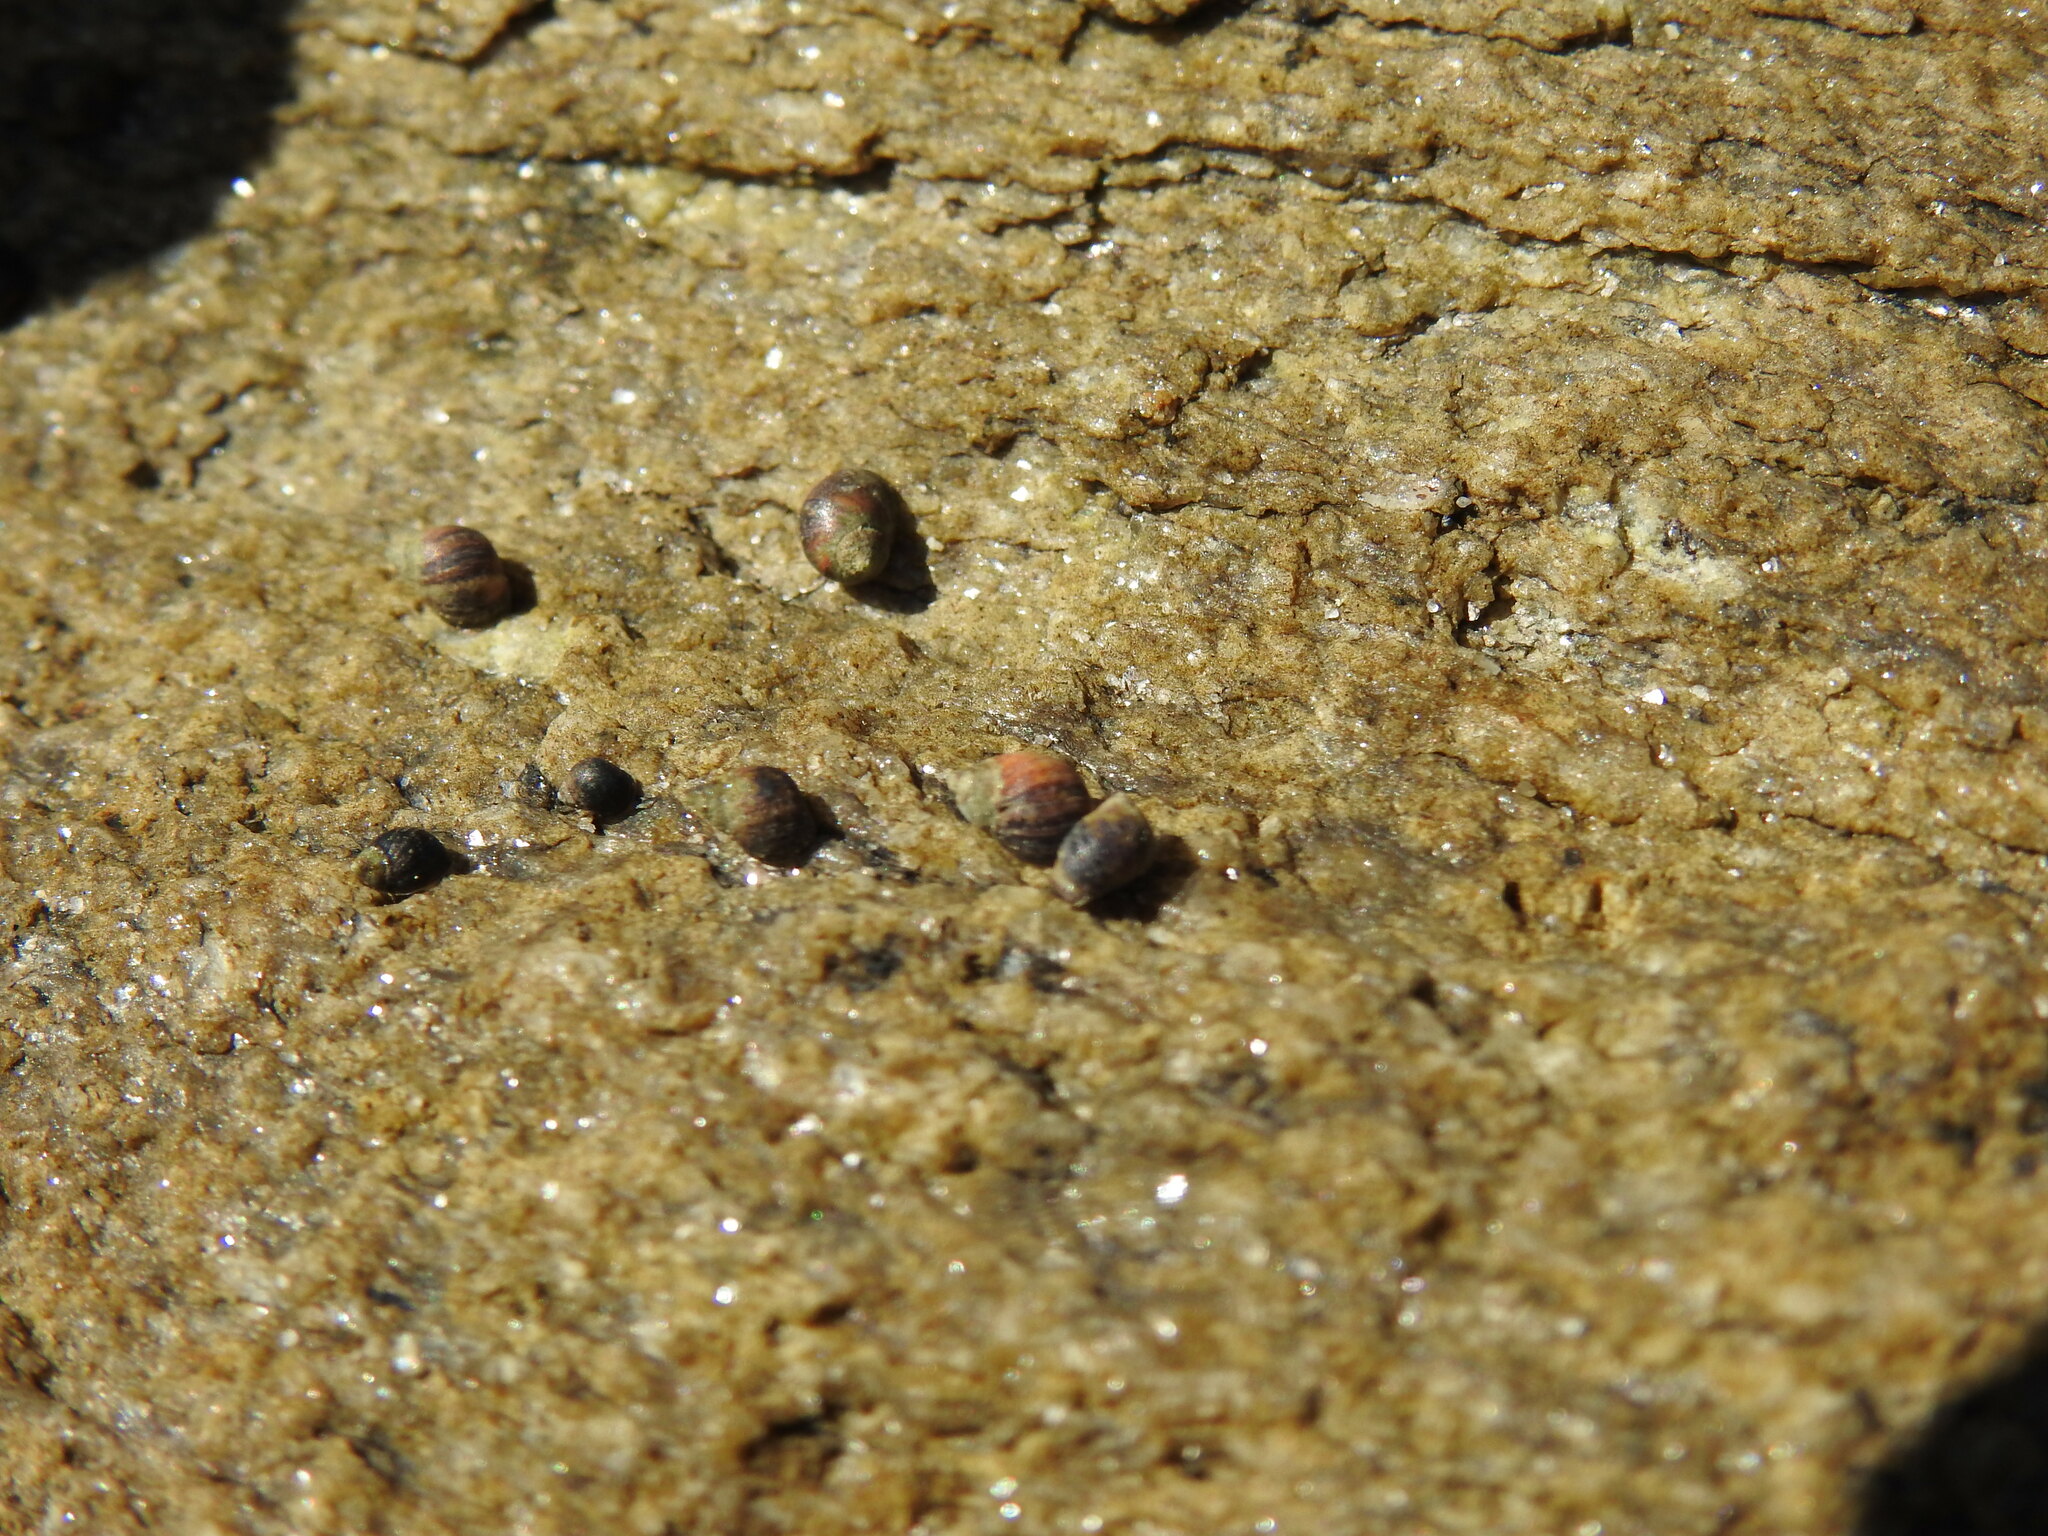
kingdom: Animalia
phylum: Mollusca
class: Gastropoda
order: Littorinimorpha
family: Littorinidae
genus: Melarhaphe
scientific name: Melarhaphe neritoides
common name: Small periwinkle
